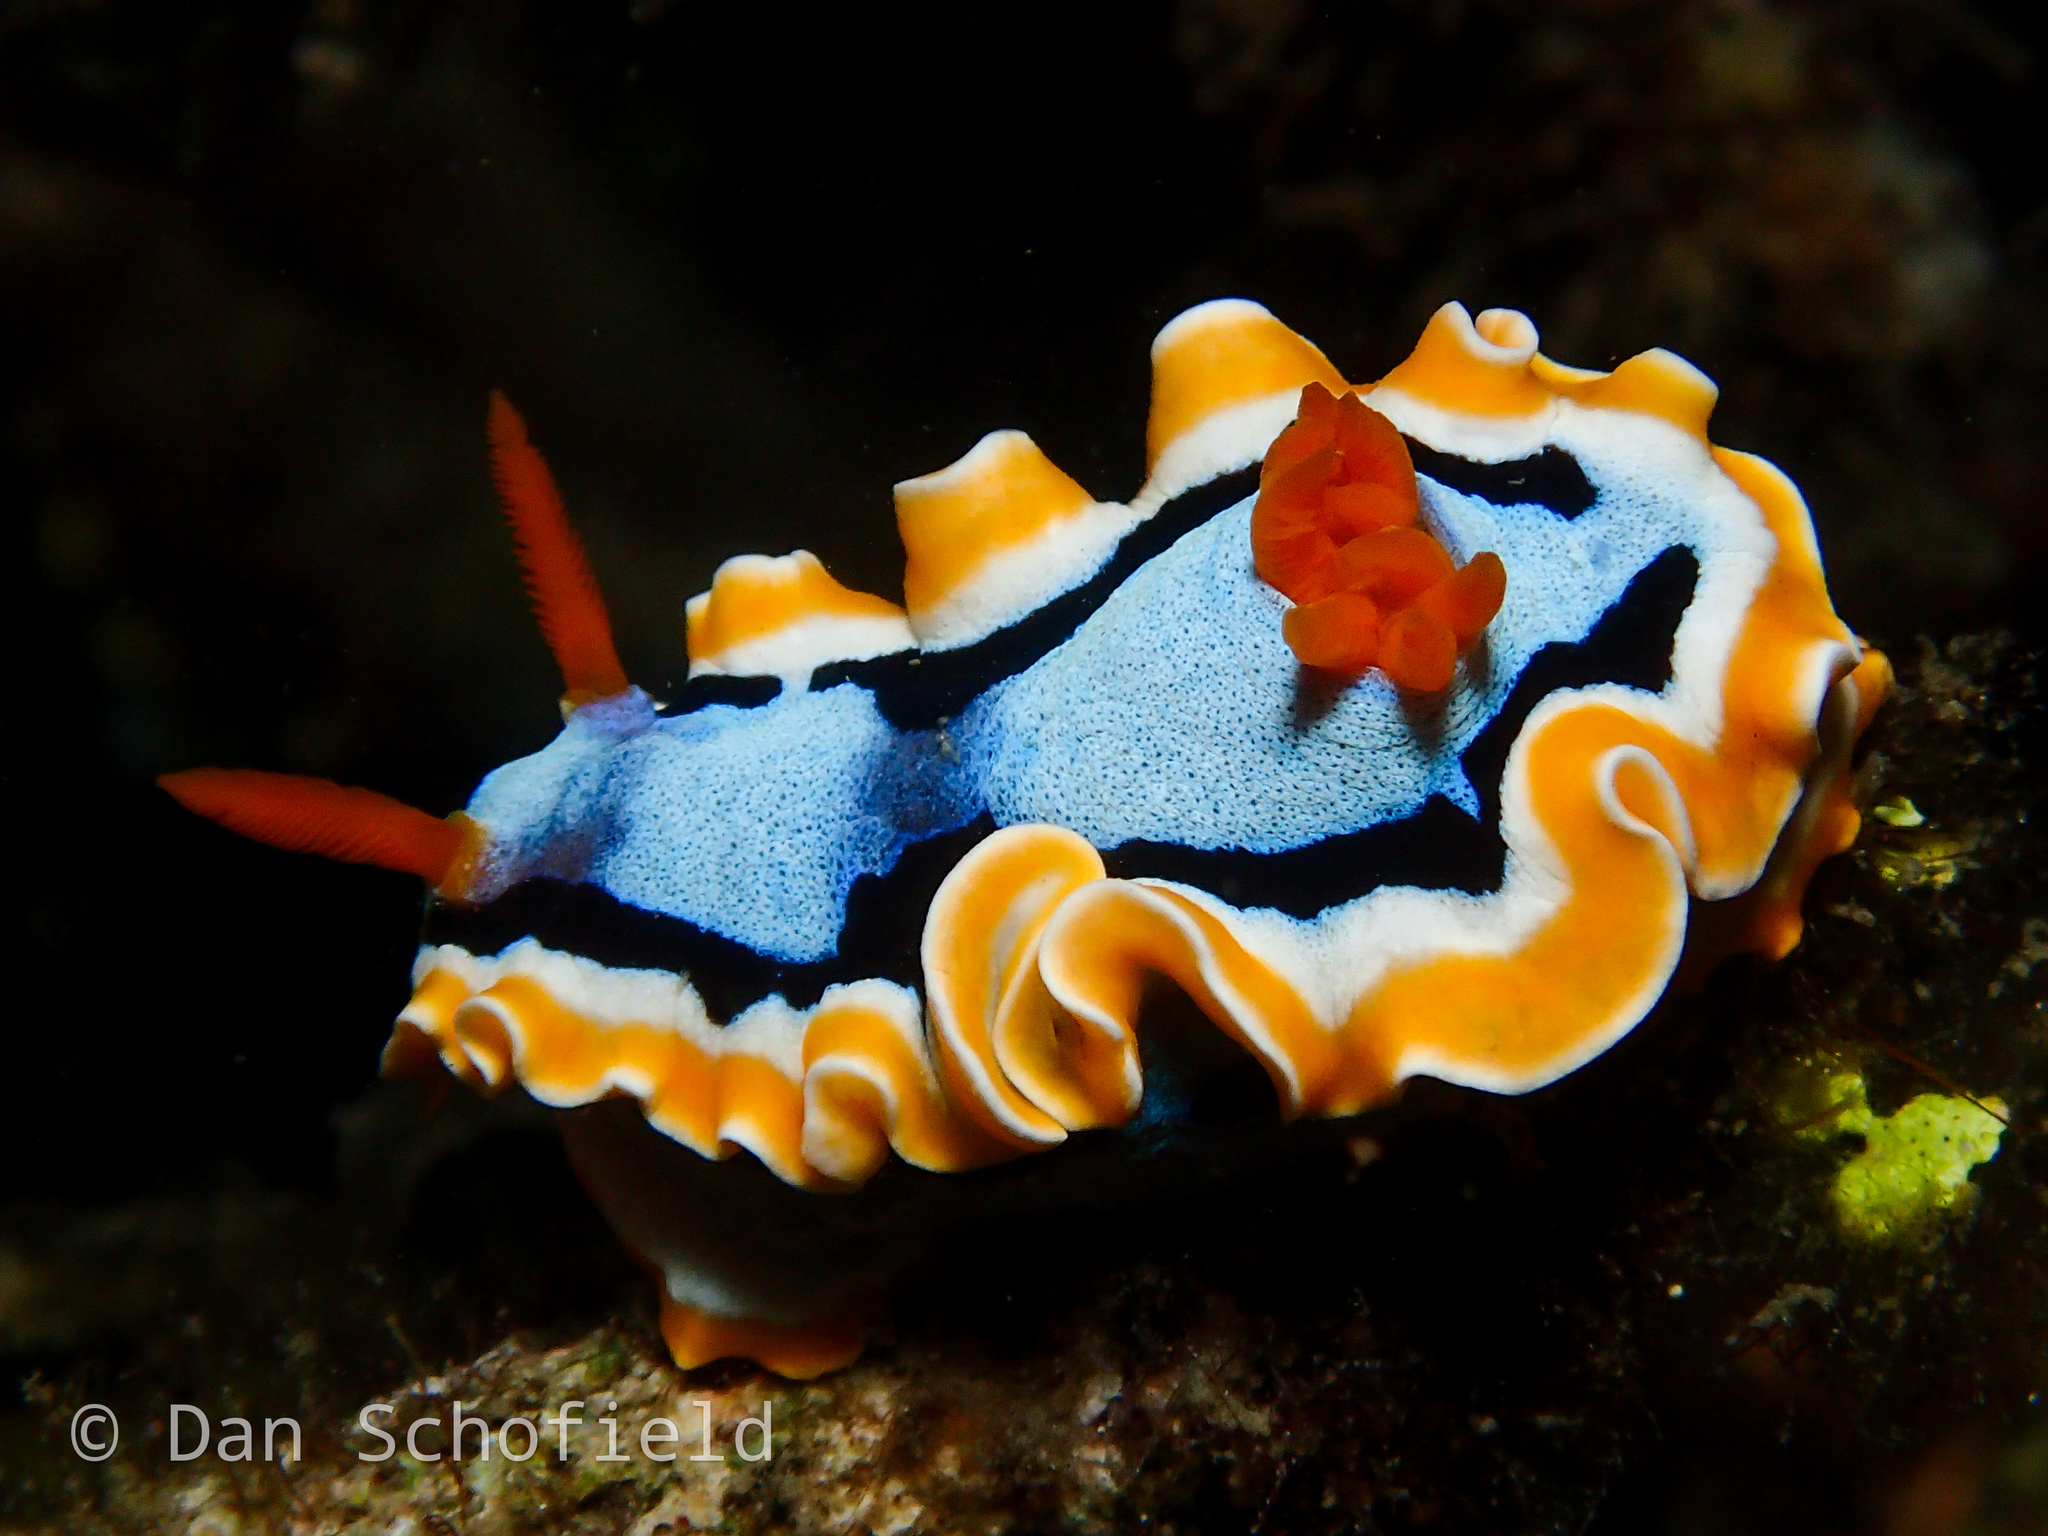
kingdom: Animalia
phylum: Mollusca
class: Gastropoda
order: Nudibranchia
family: Chromodorididae
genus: Chromodoris
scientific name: Chromodoris annae
